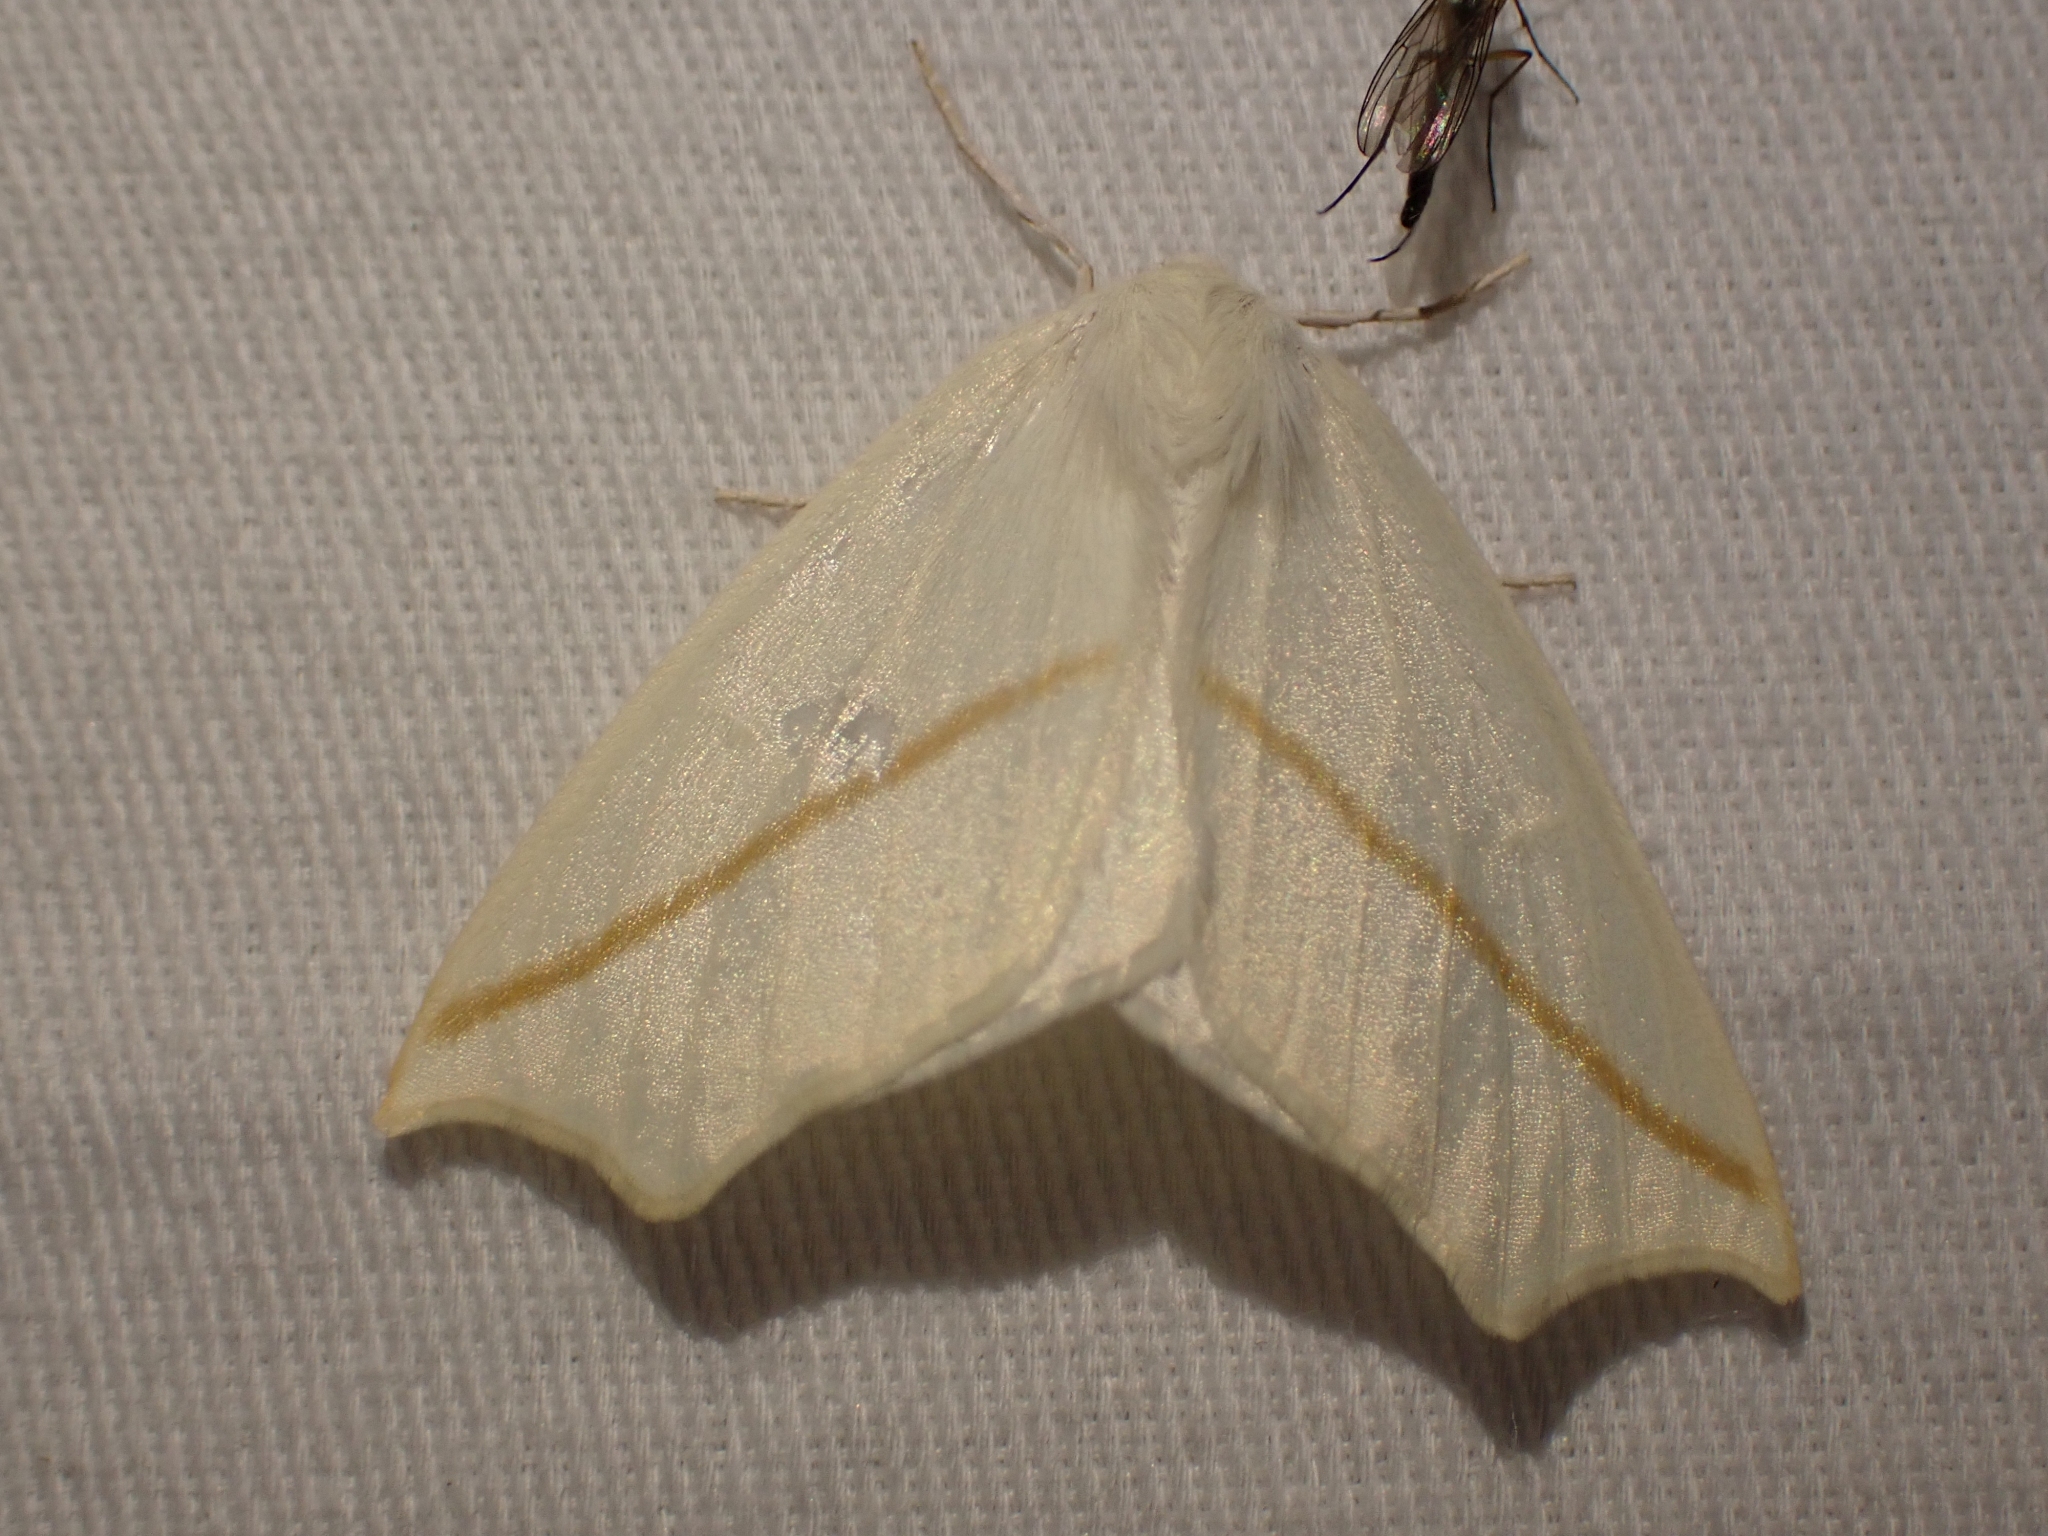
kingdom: Animalia
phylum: Arthropoda
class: Insecta
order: Lepidoptera
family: Geometridae
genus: Tetracis
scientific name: Tetracis cachexiata
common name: White slant-line
